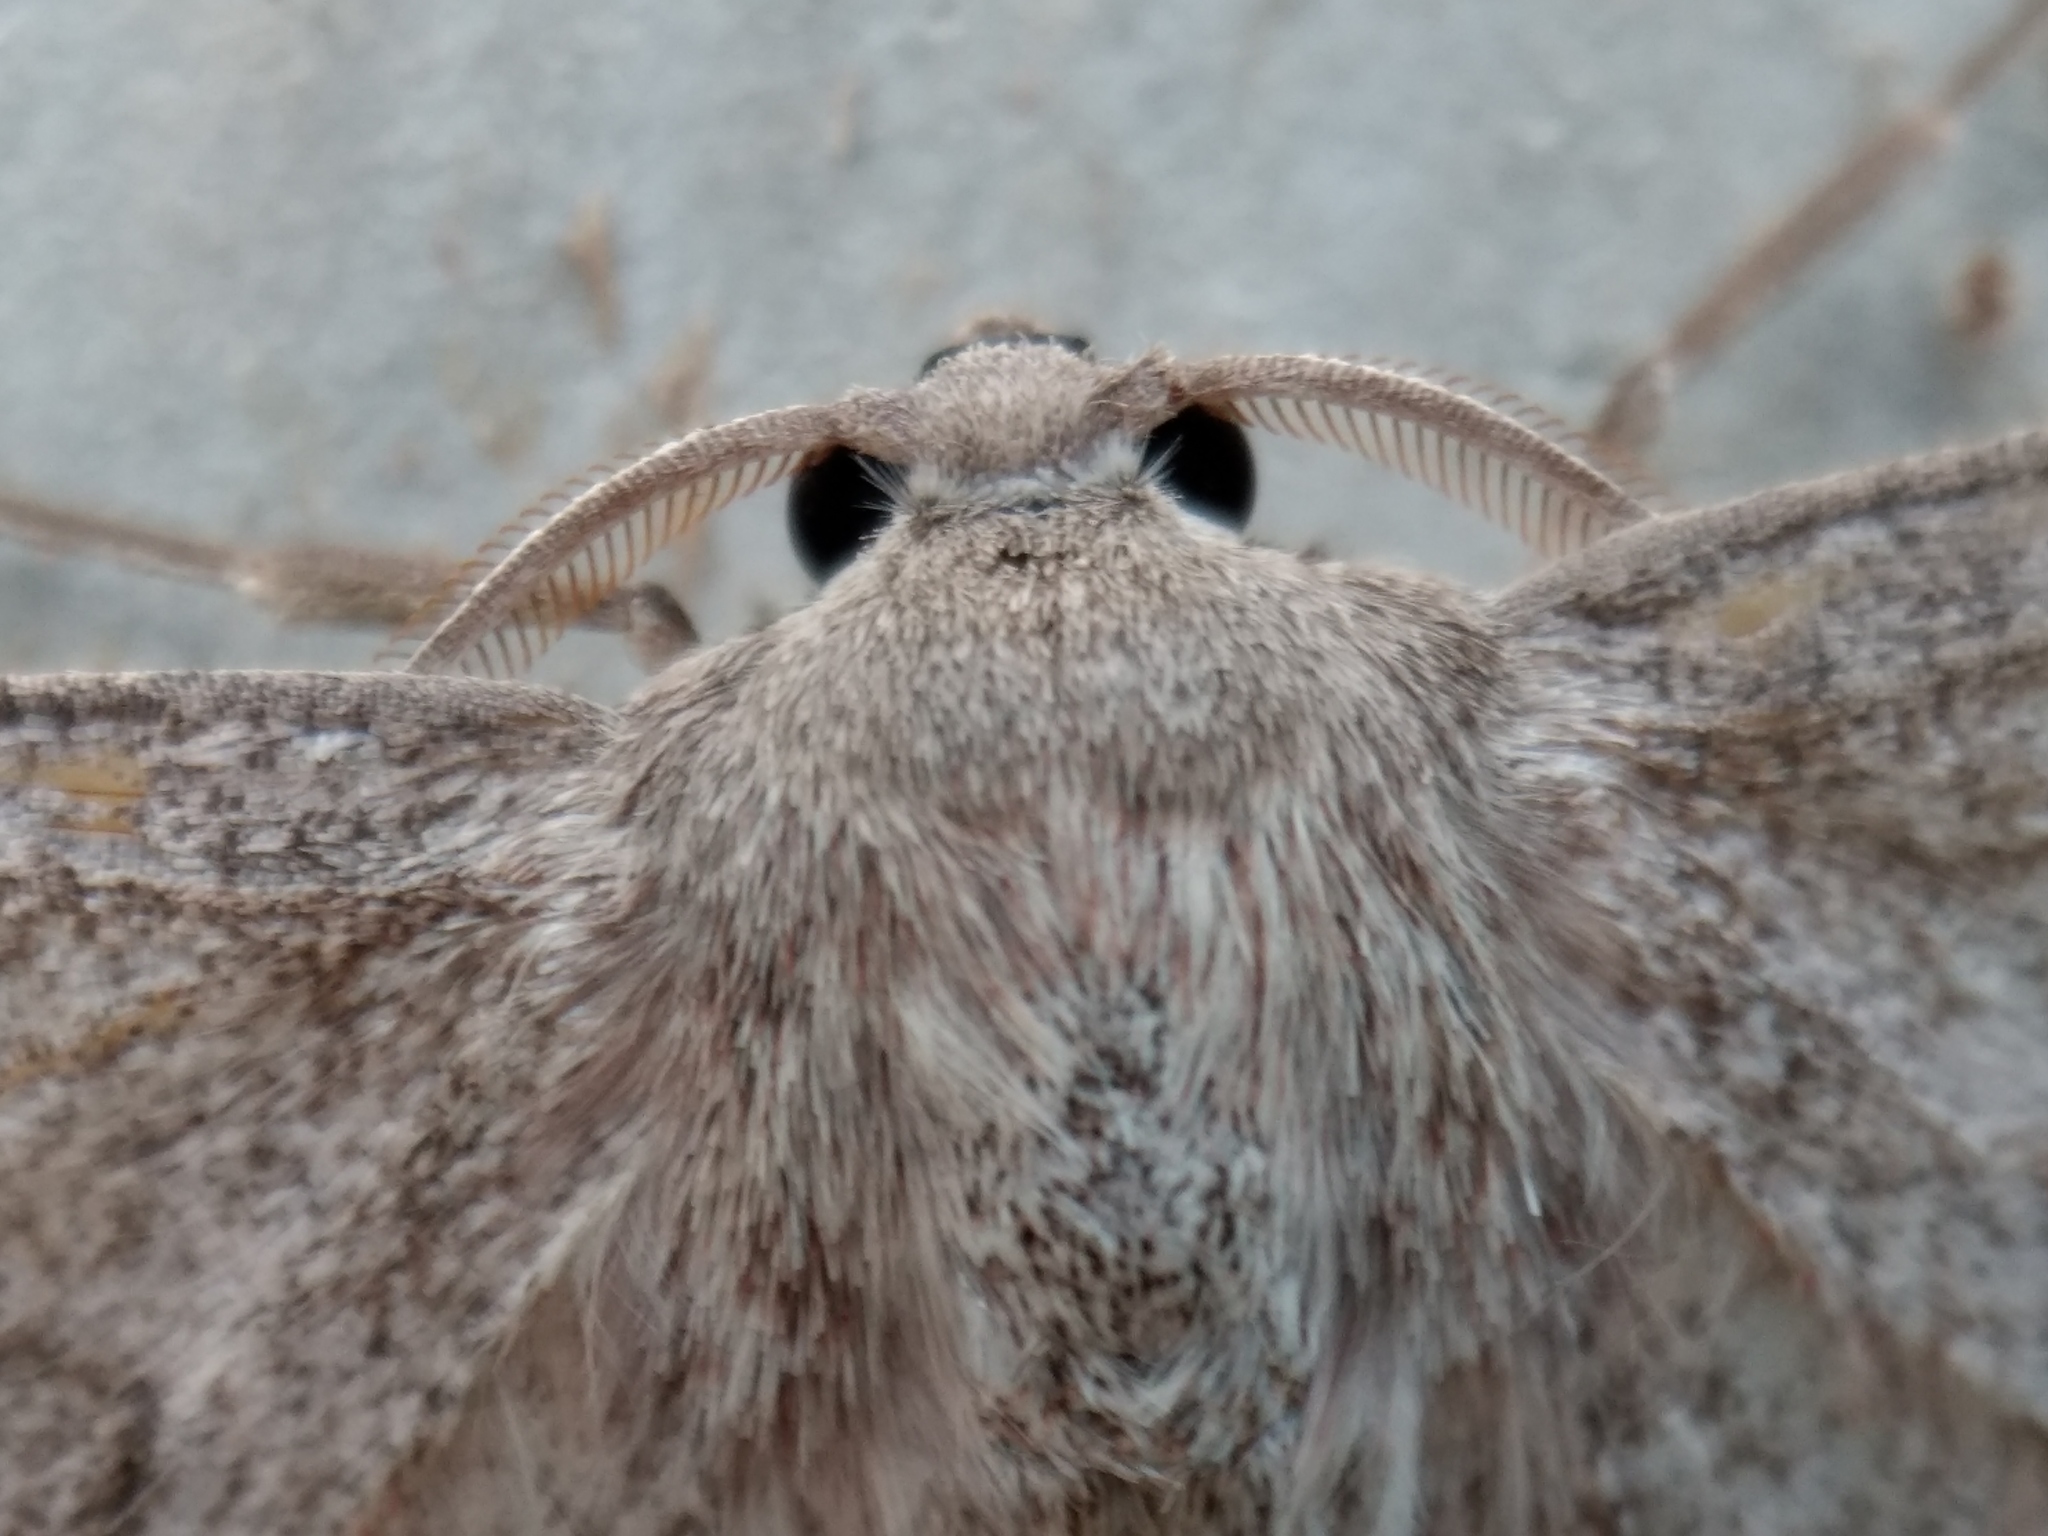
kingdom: Animalia
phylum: Arthropoda
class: Insecta
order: Lepidoptera
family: Geometridae
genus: Crypsiphona
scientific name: Crypsiphona ocultaria
